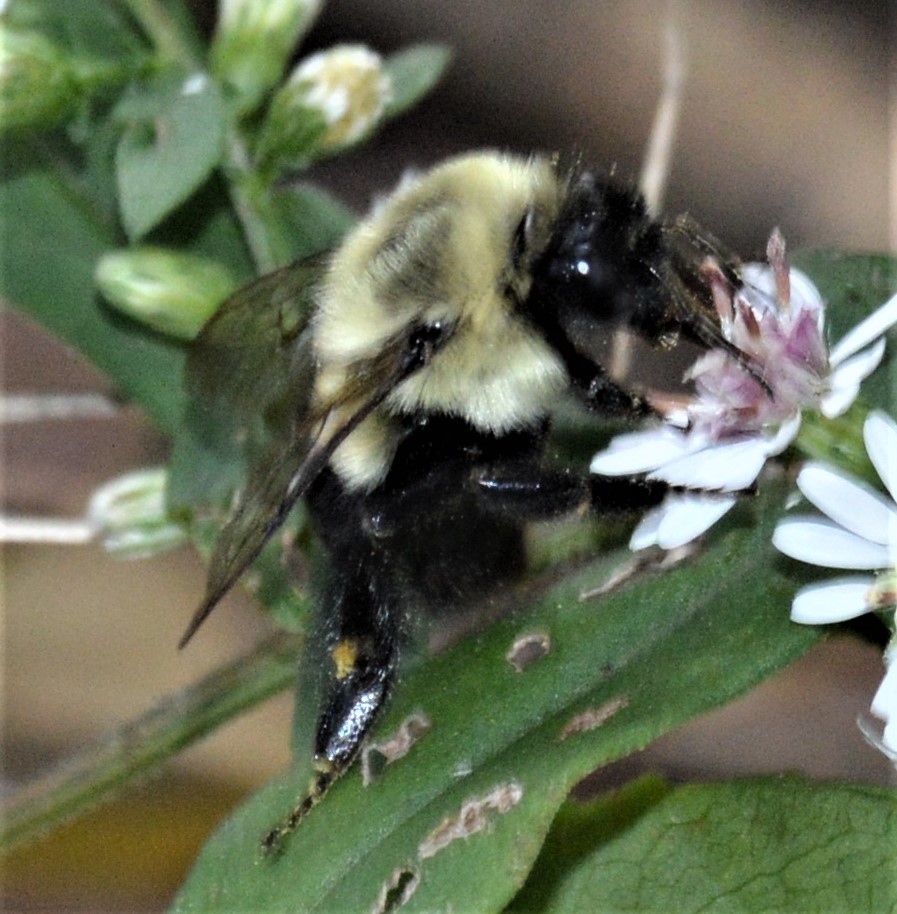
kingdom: Animalia
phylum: Arthropoda
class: Insecta
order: Hymenoptera
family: Apidae
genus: Bombus
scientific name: Bombus impatiens
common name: Common eastern bumble bee
